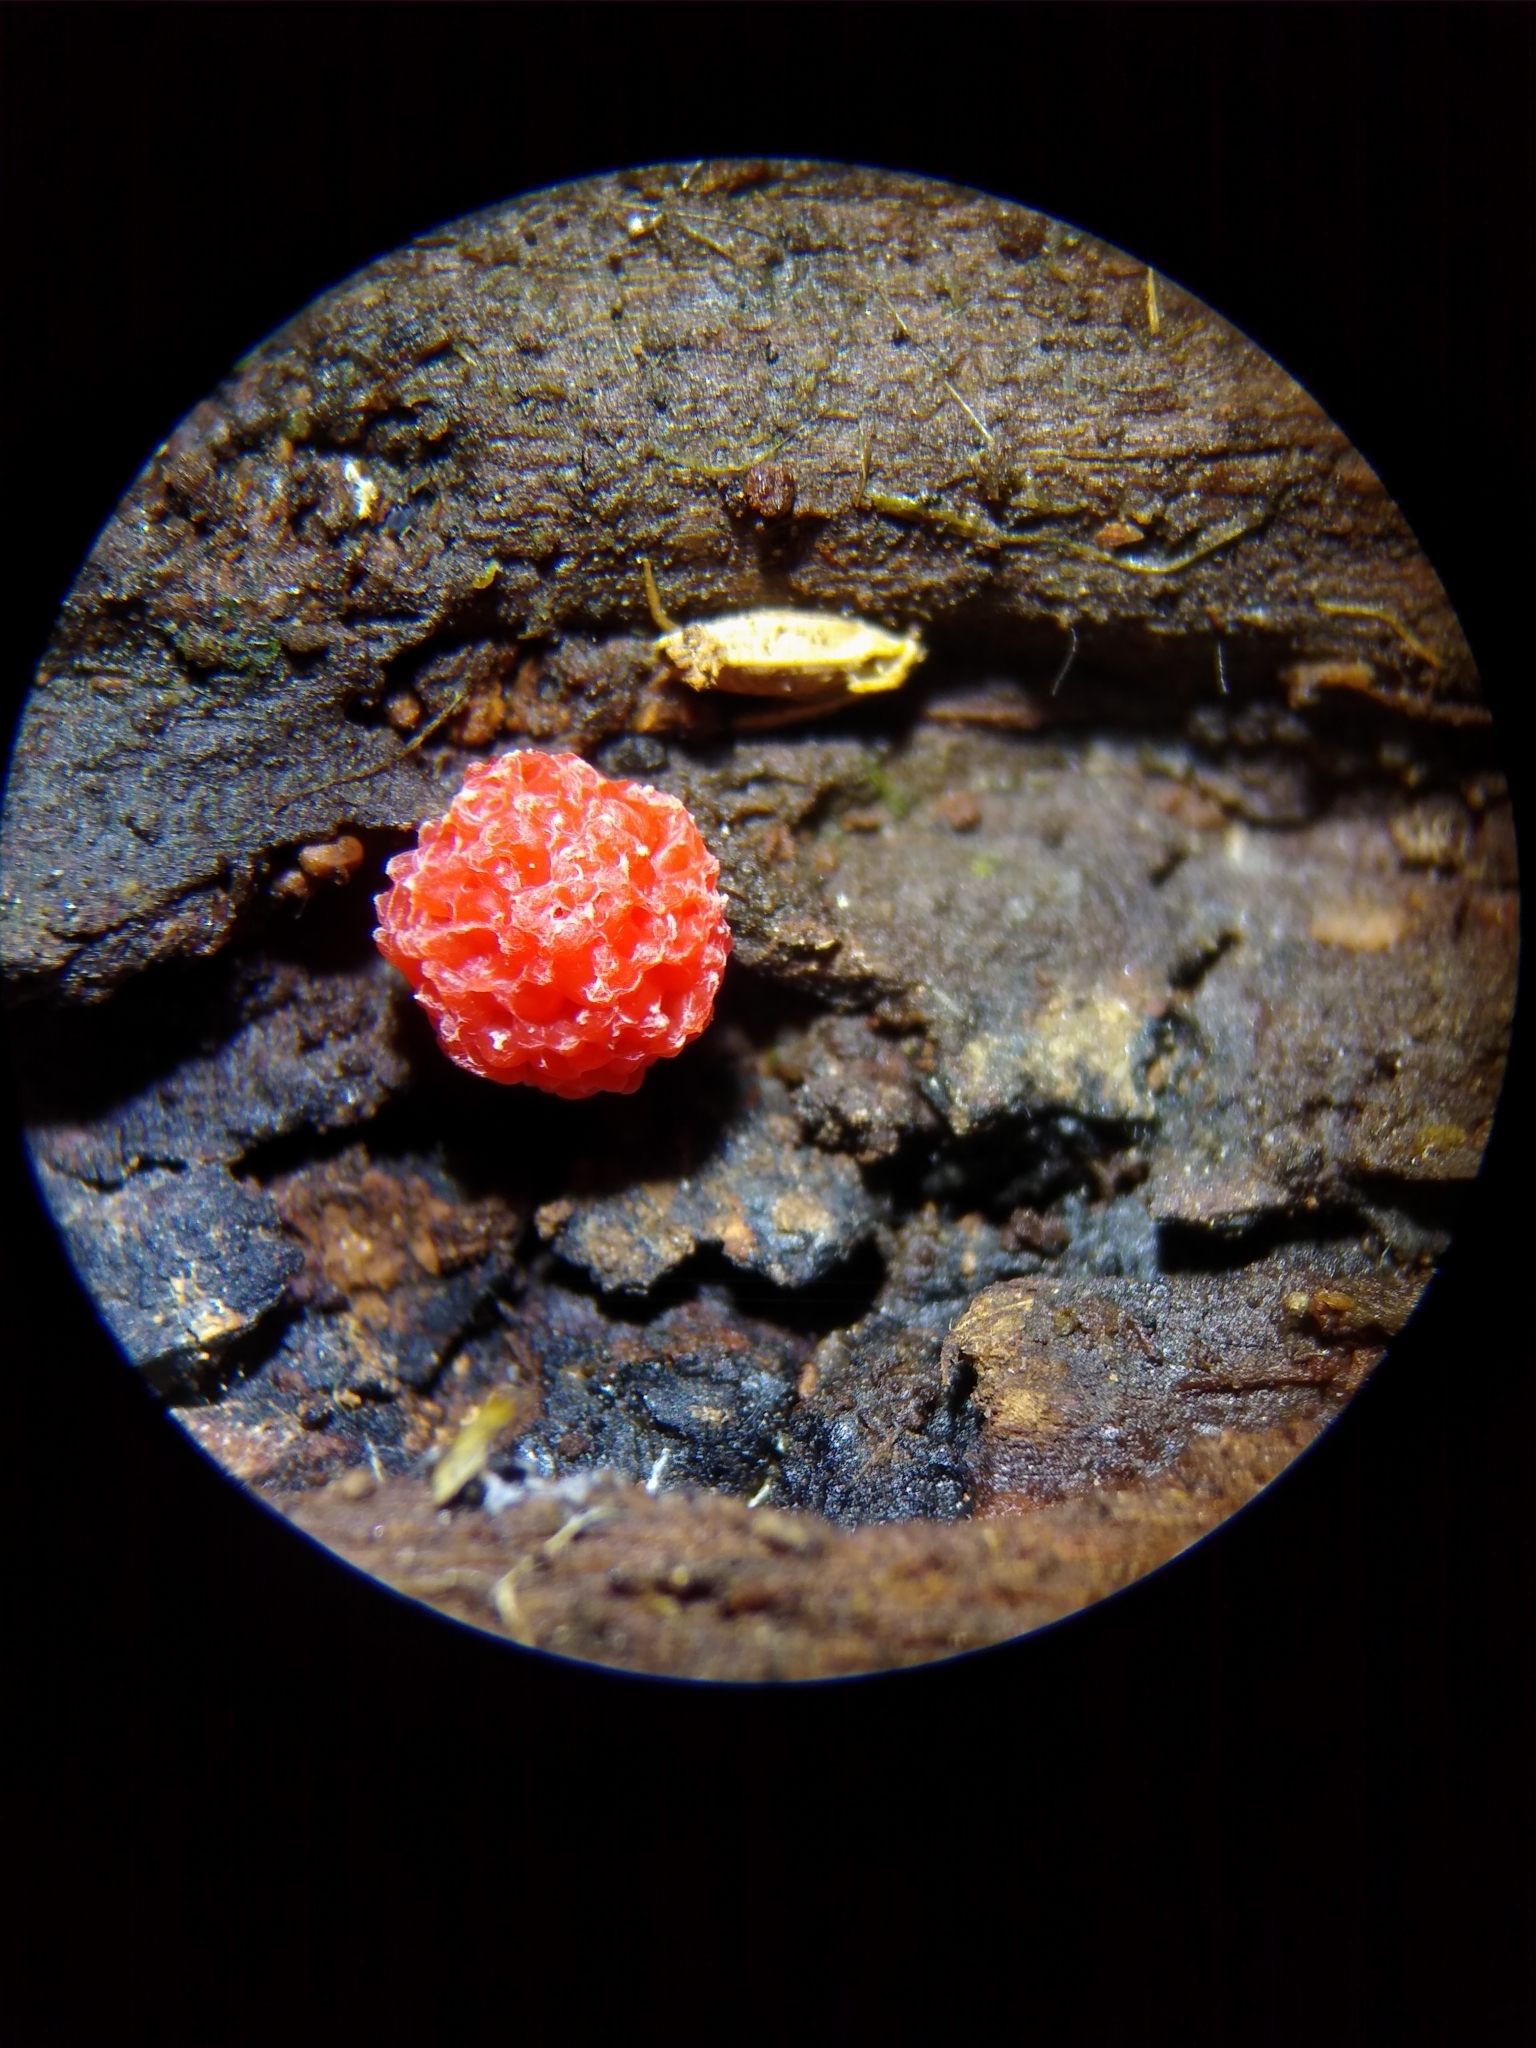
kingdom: Protozoa
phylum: Mycetozoa
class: Myxomycetes
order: Cribrariales
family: Tubiferaceae
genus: Tubifera
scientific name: Tubifera ferruginosa
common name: Red raspberry slime mold
